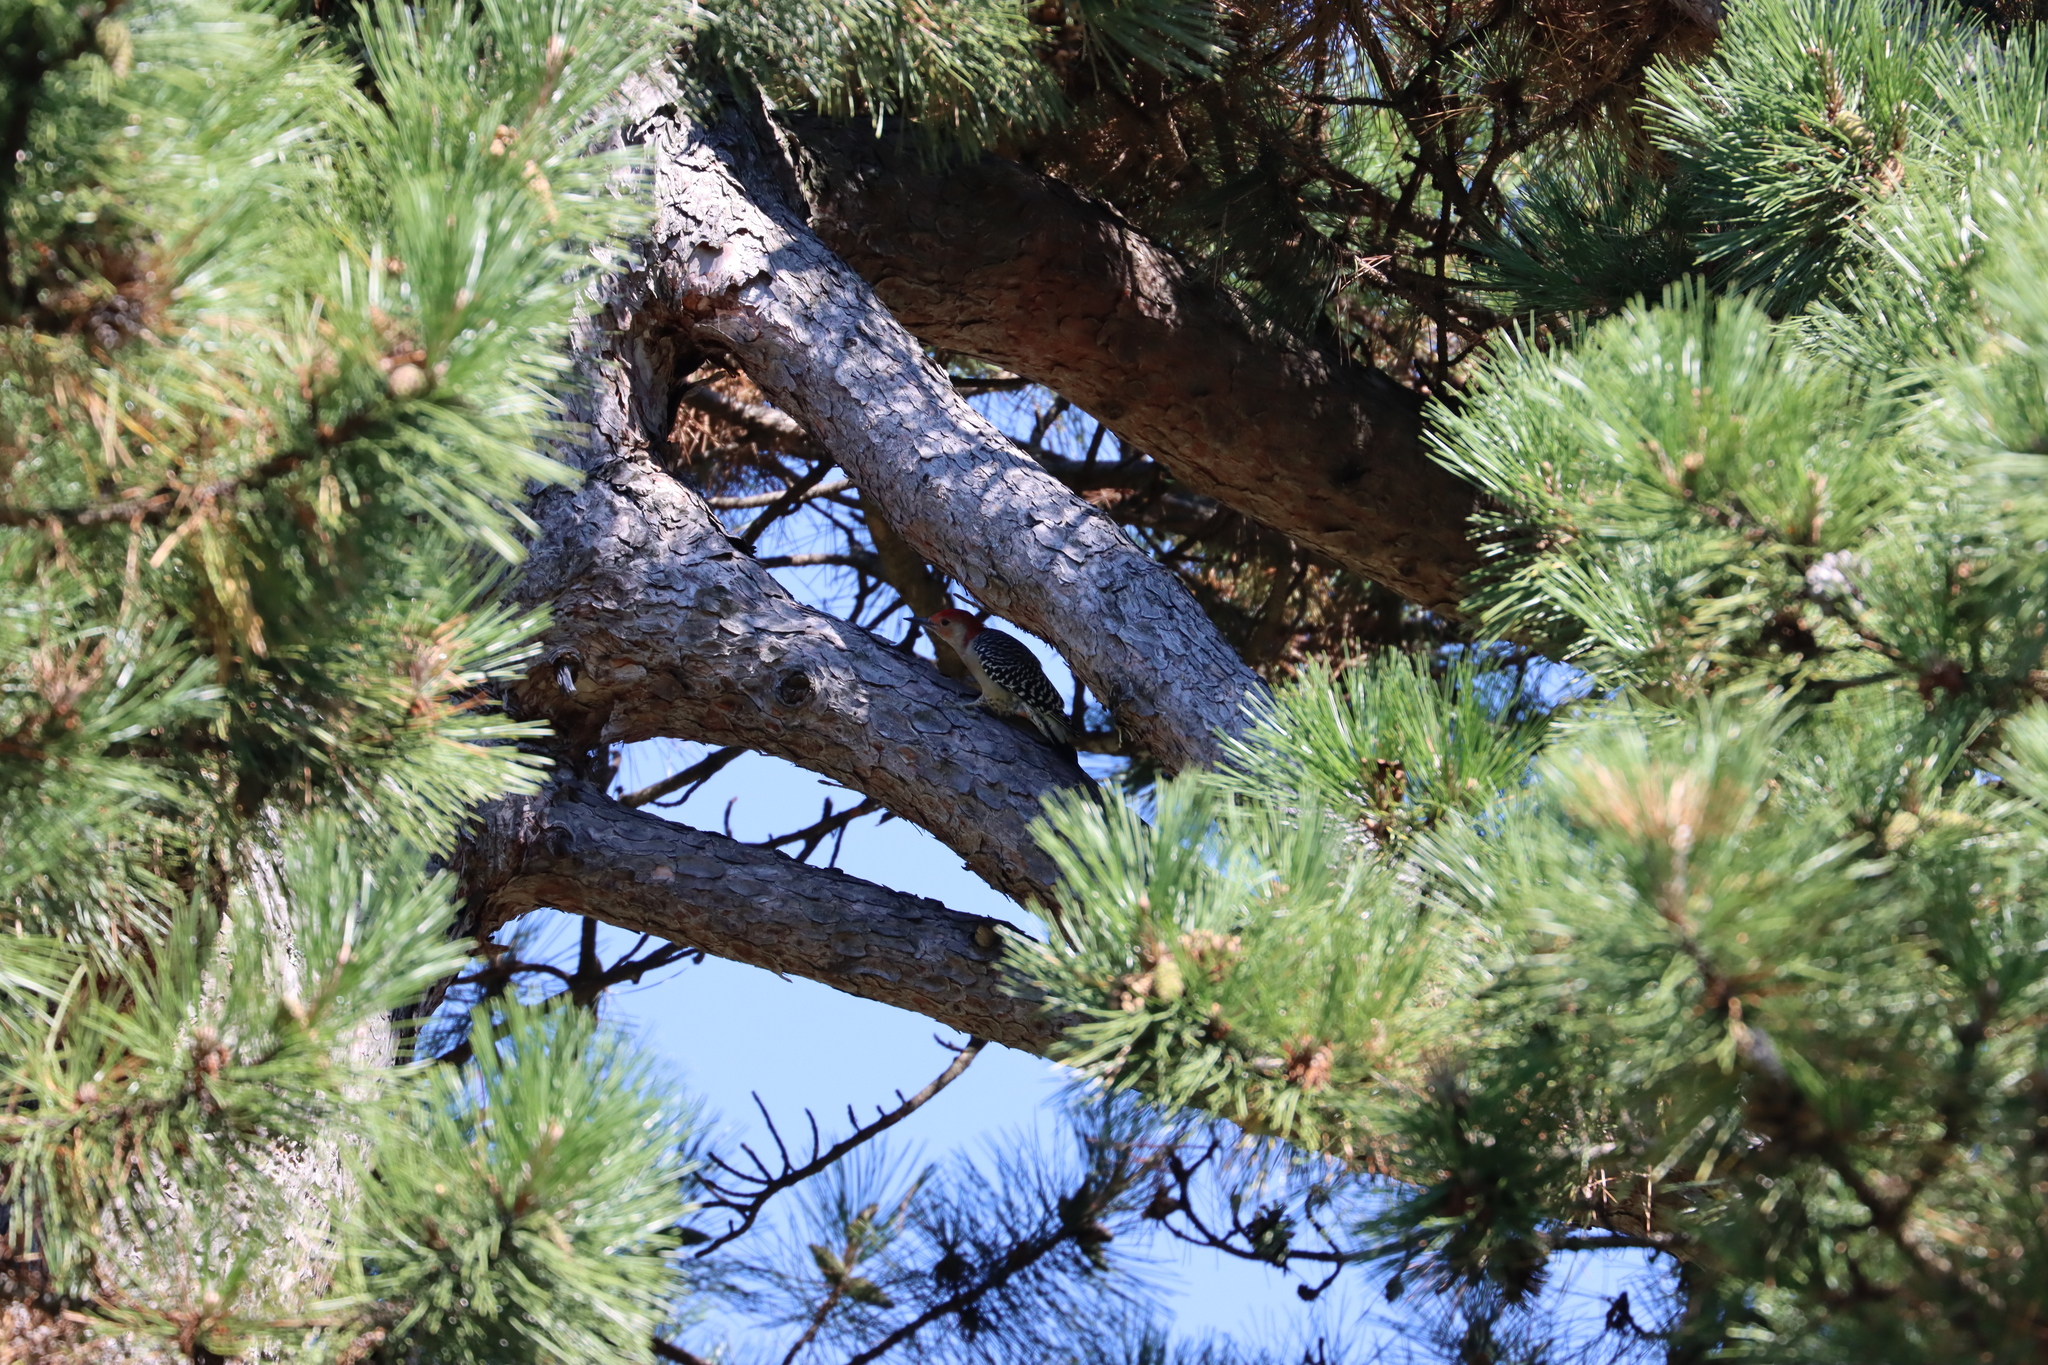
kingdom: Animalia
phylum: Chordata
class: Aves
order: Piciformes
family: Picidae
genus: Melanerpes
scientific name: Melanerpes carolinus
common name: Red-bellied woodpecker
